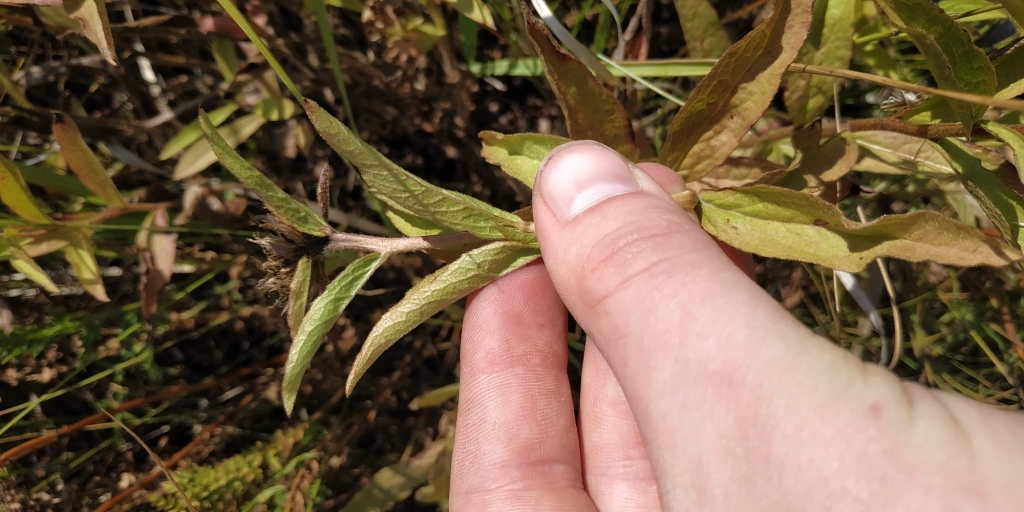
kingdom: Plantae
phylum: Tracheophyta
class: Magnoliopsida
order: Asterales
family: Asteraceae
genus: Pentanema
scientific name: Pentanema hirtum
